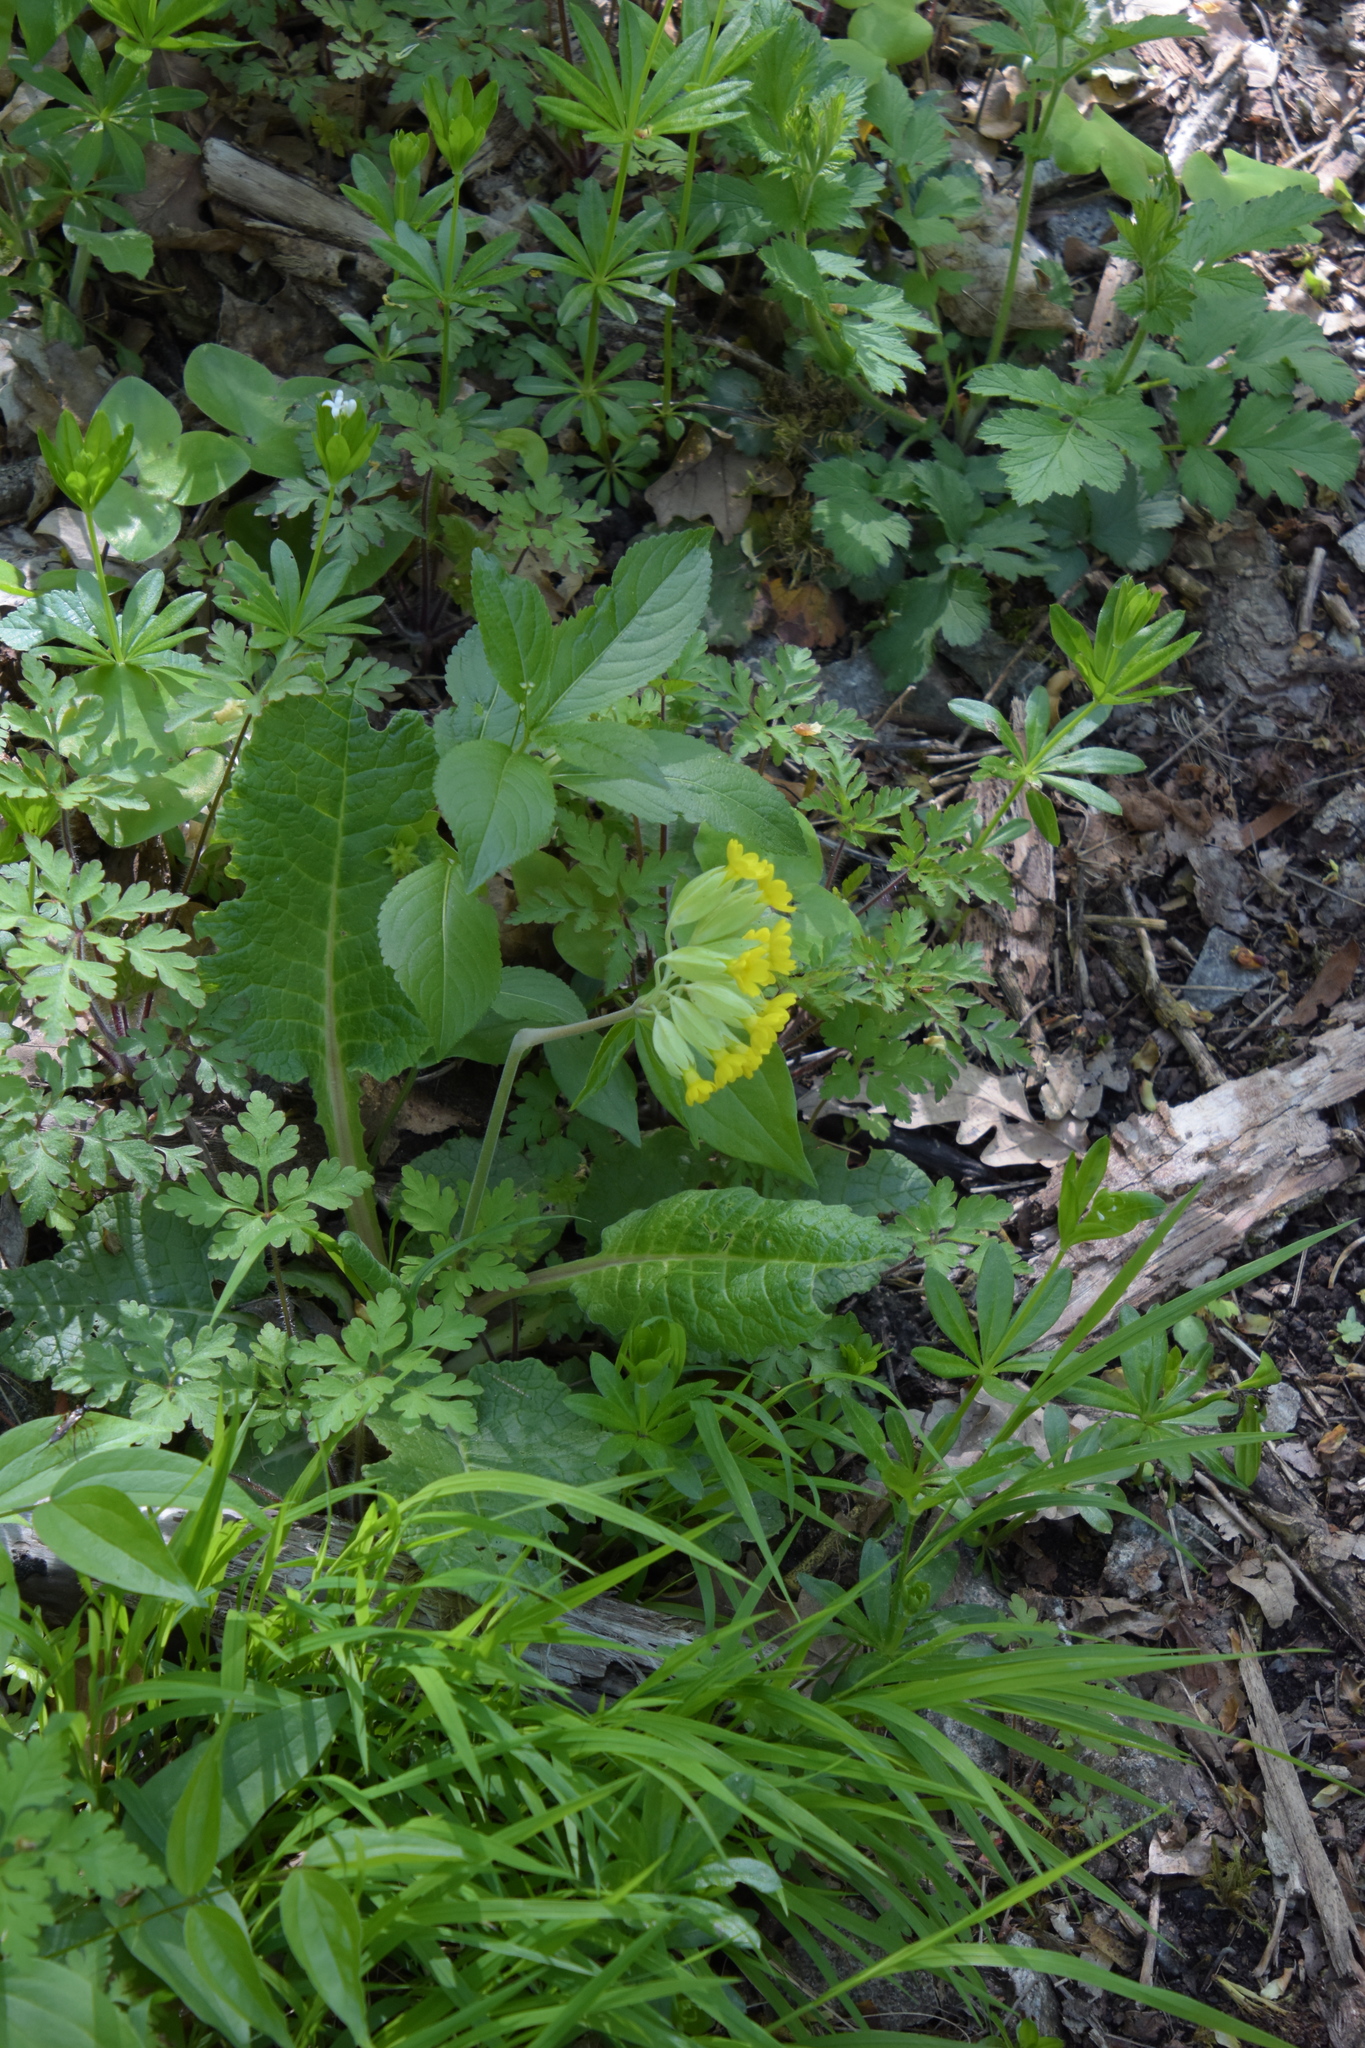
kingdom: Plantae
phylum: Tracheophyta
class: Magnoliopsida
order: Ericales
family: Primulaceae
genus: Primula
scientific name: Primula veris
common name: Cowslip
